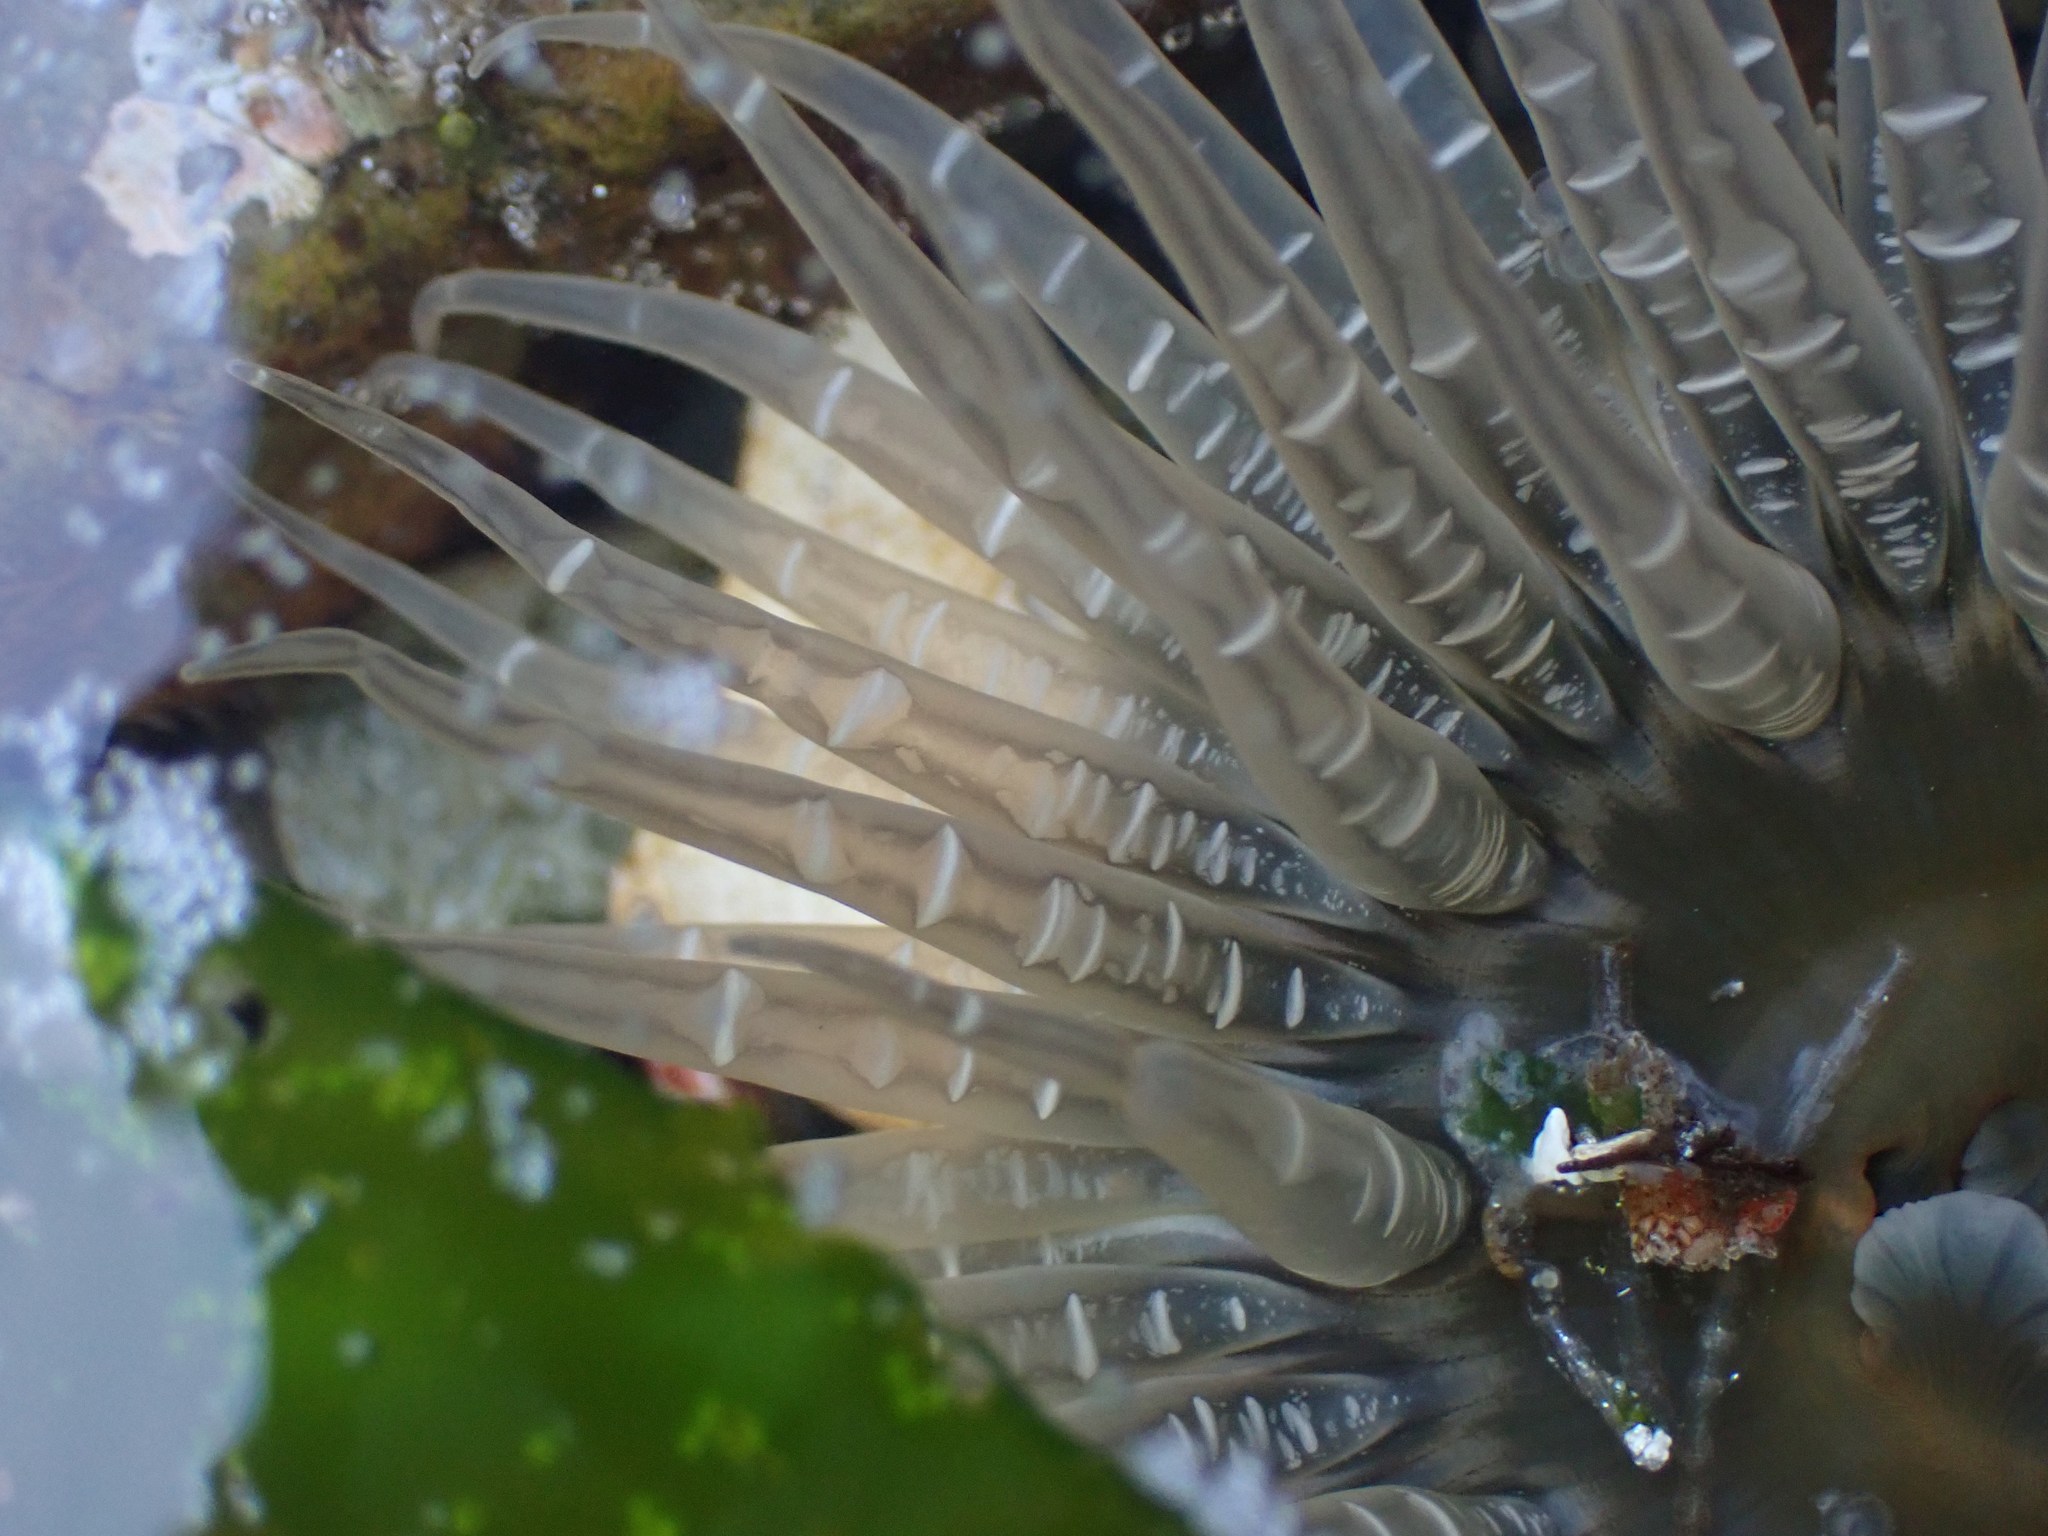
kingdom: Animalia
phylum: Cnidaria
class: Anthozoa
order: Actiniaria
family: Actiniidae
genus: Anthopleura
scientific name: Anthopleura artemisia
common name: Buried sea anemone
